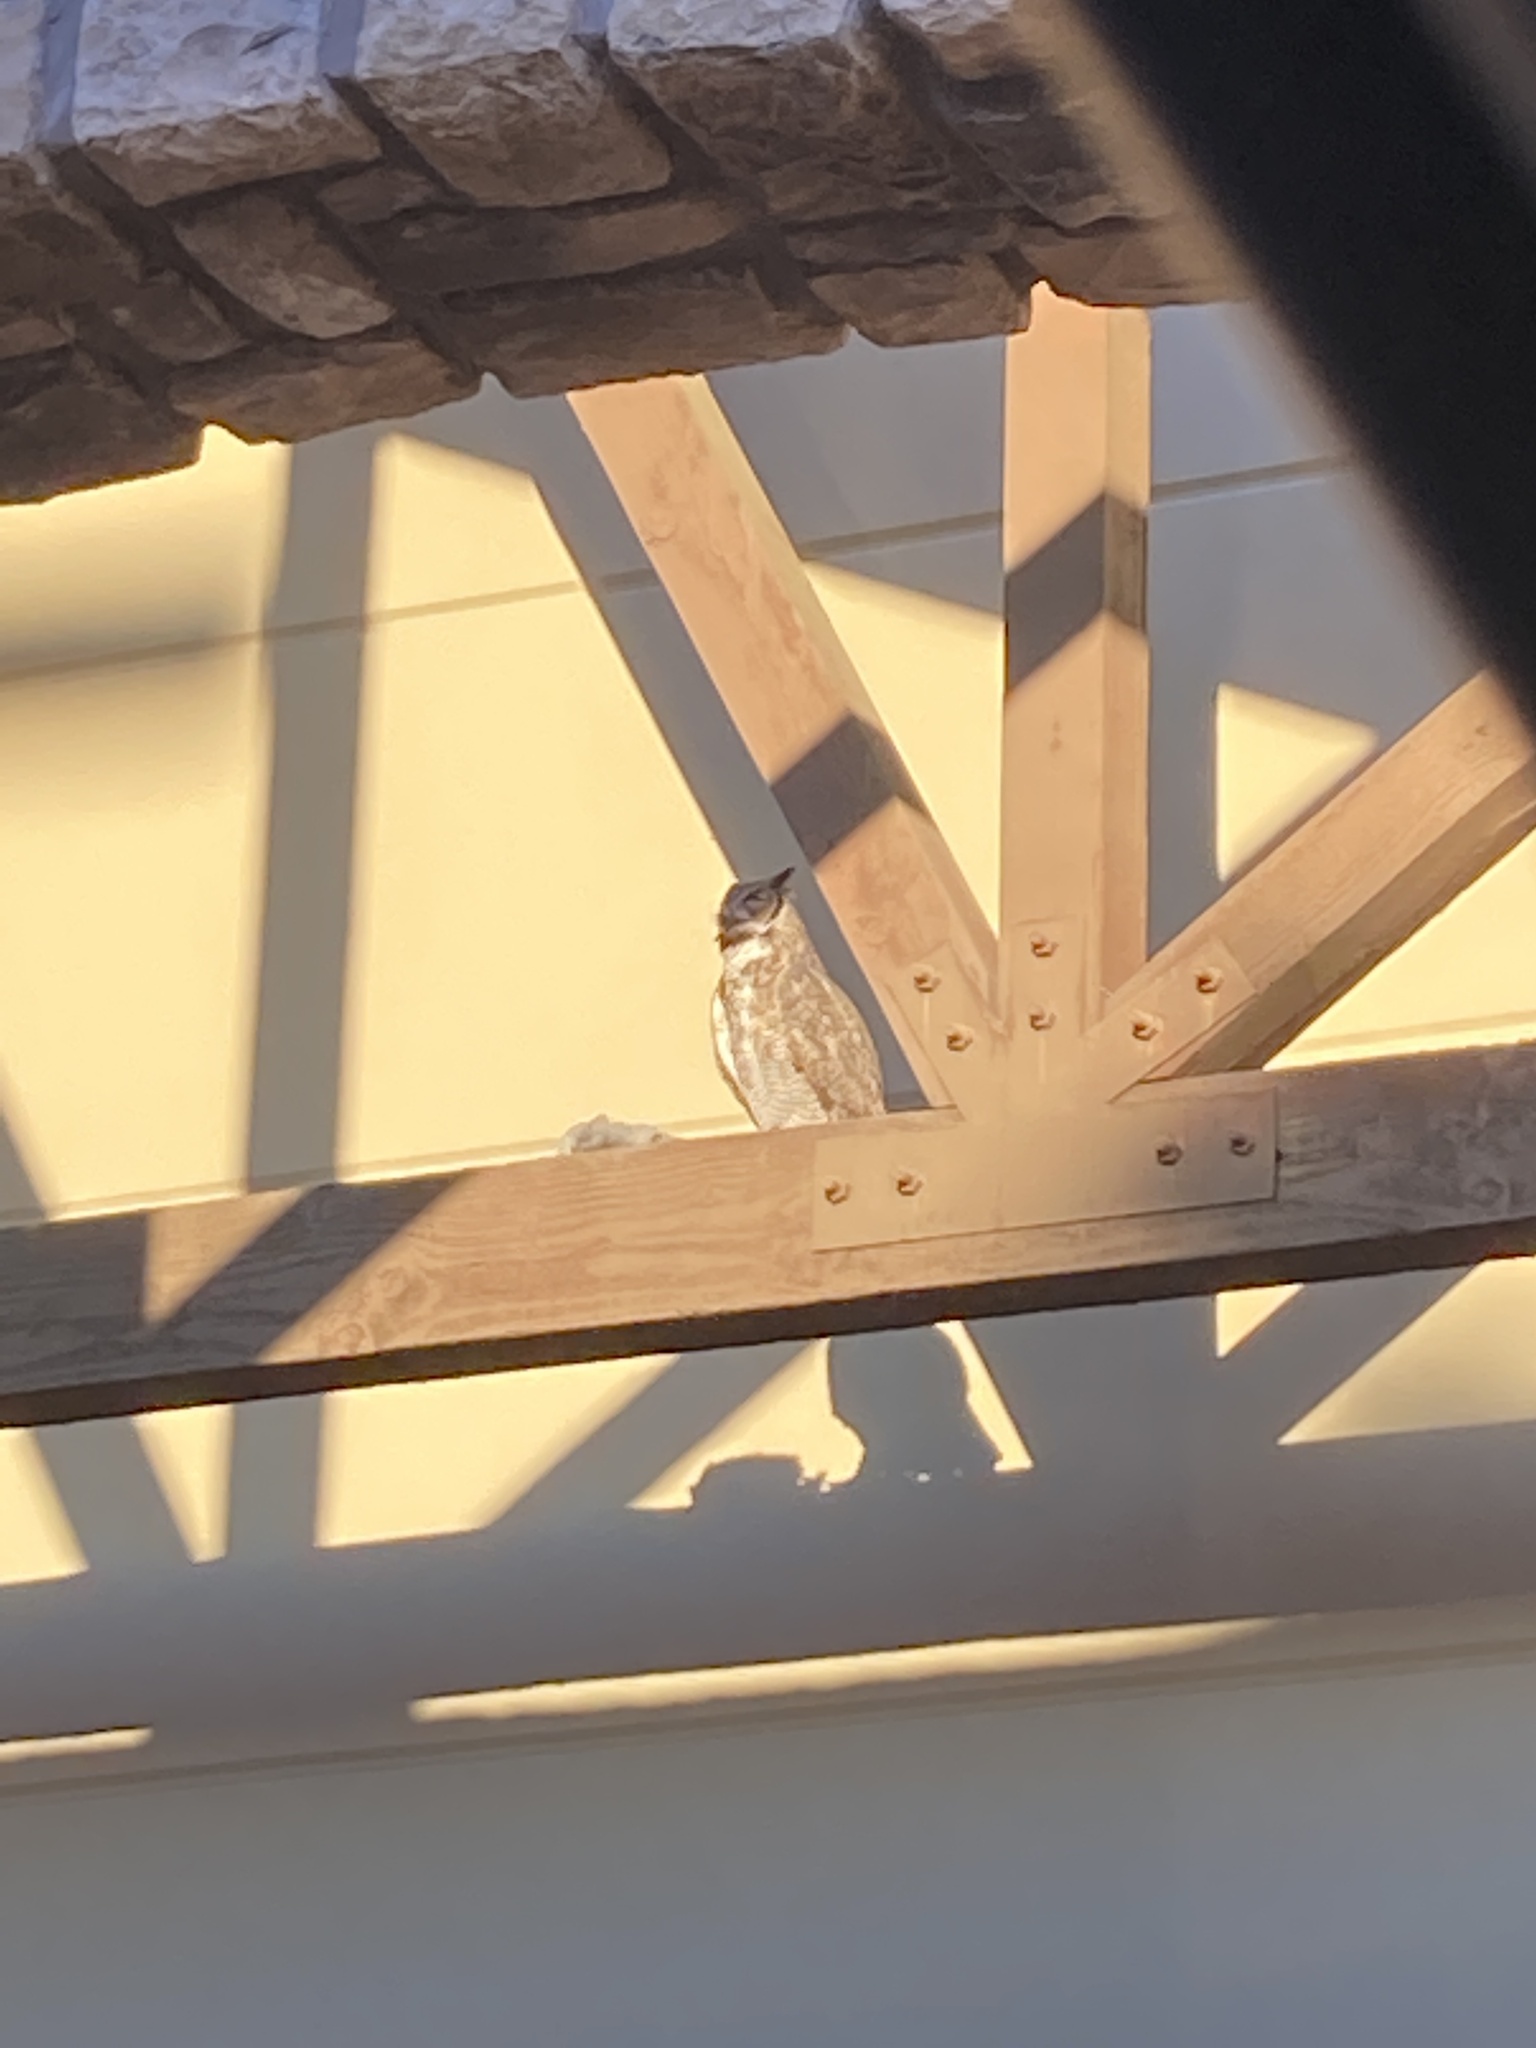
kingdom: Animalia
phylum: Chordata
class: Aves
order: Strigiformes
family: Strigidae
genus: Bubo
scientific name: Bubo virginianus
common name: Great horned owl
